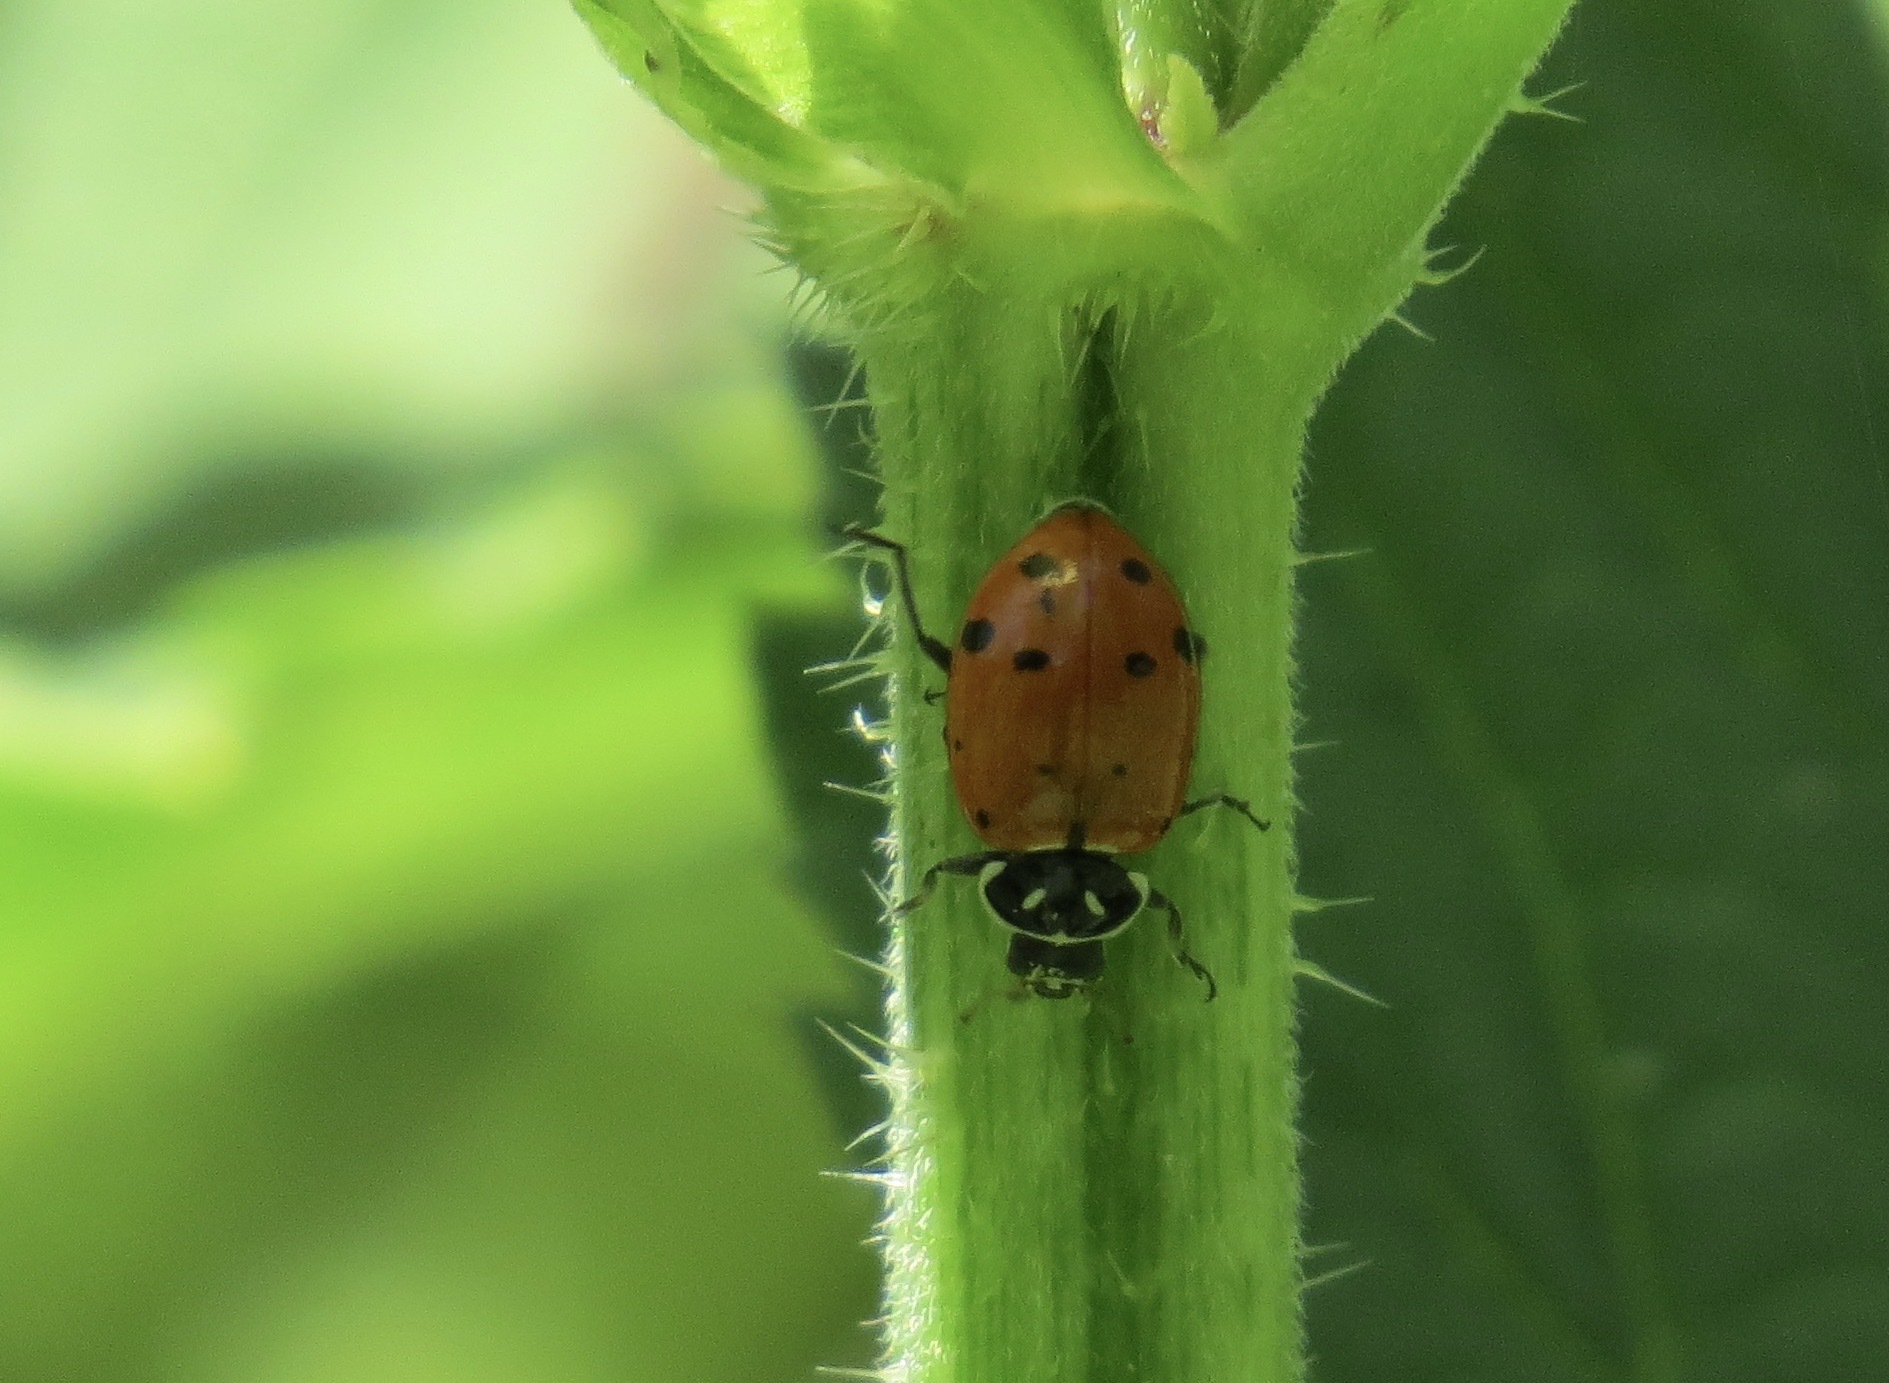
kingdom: Animalia
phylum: Arthropoda
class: Insecta
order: Coleoptera
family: Coccinellidae
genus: Hippodamia
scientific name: Hippodamia convergens
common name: Convergent lady beetle
